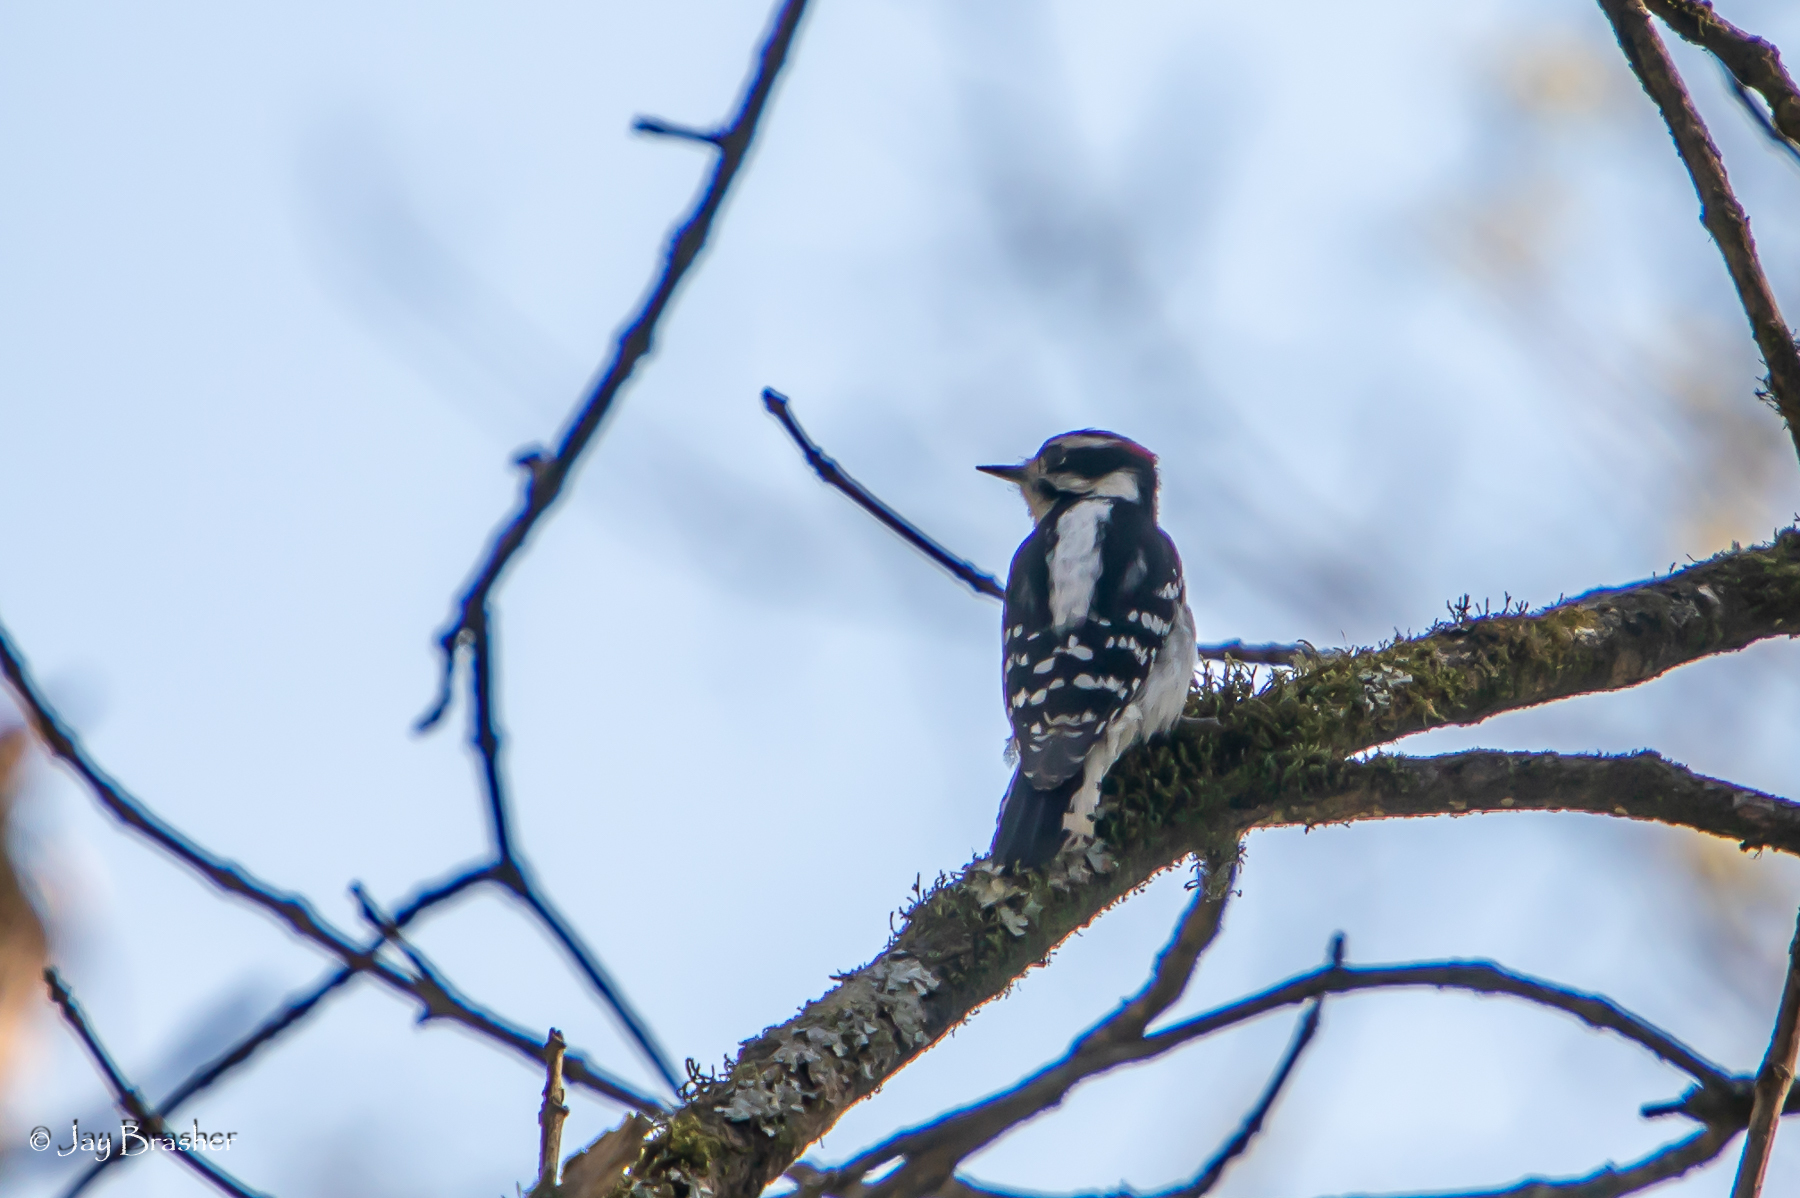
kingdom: Animalia
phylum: Chordata
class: Aves
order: Piciformes
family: Picidae
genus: Dryobates
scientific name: Dryobates pubescens
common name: Downy woodpecker
